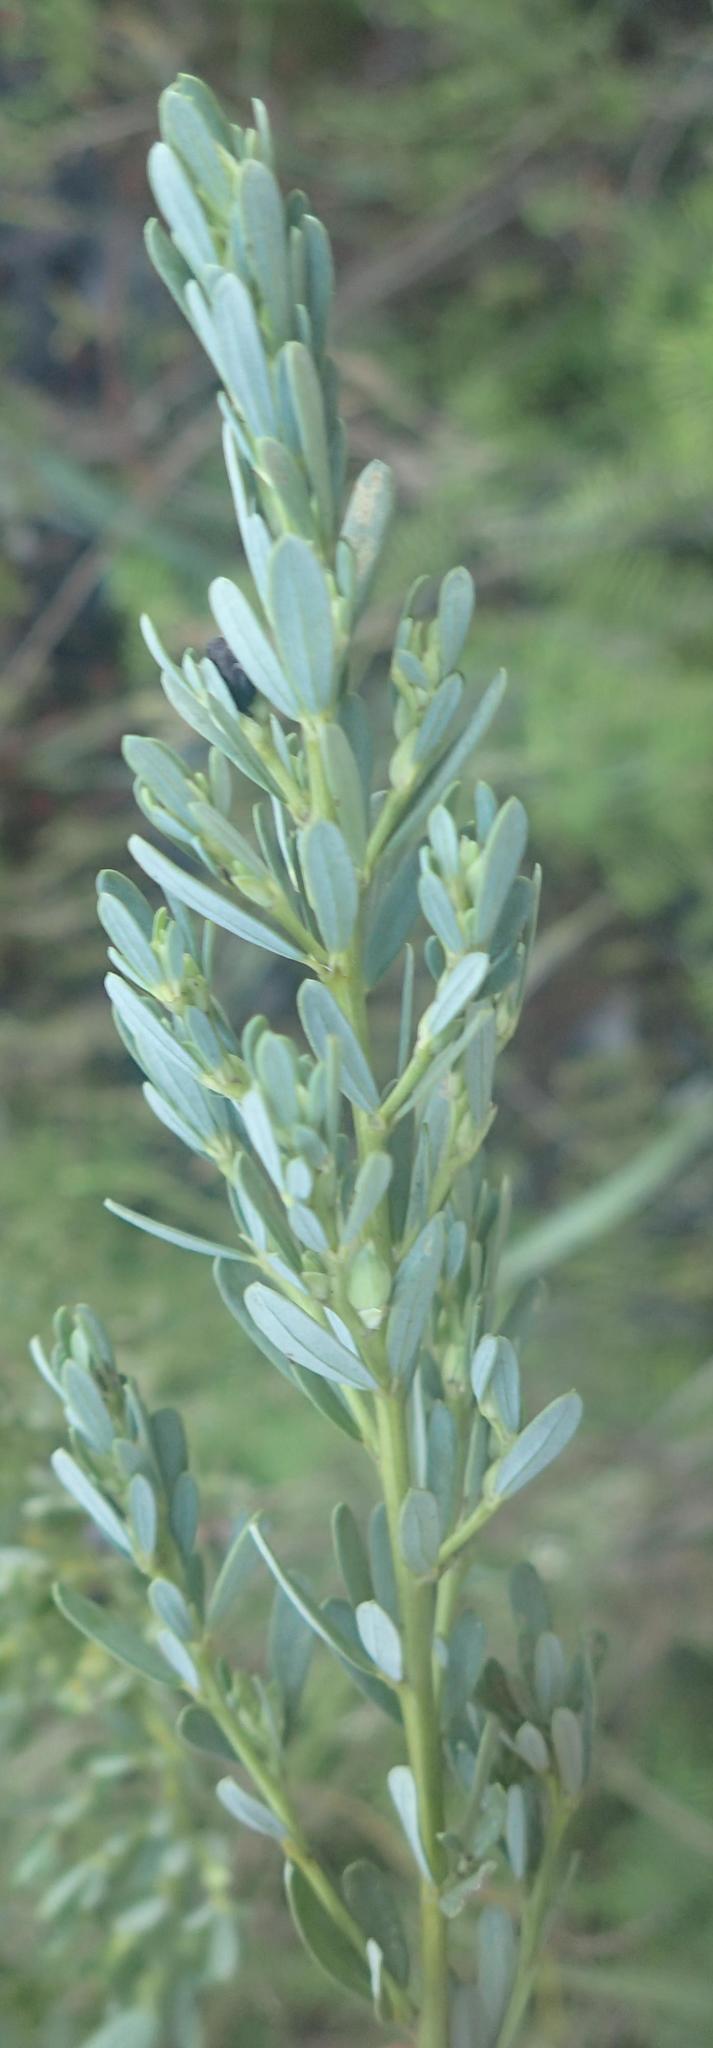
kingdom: Plantae
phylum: Tracheophyta
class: Magnoliopsida
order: Fabales
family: Fabaceae
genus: Cyclopia
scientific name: Cyclopia subternata
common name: Honeybush tea
